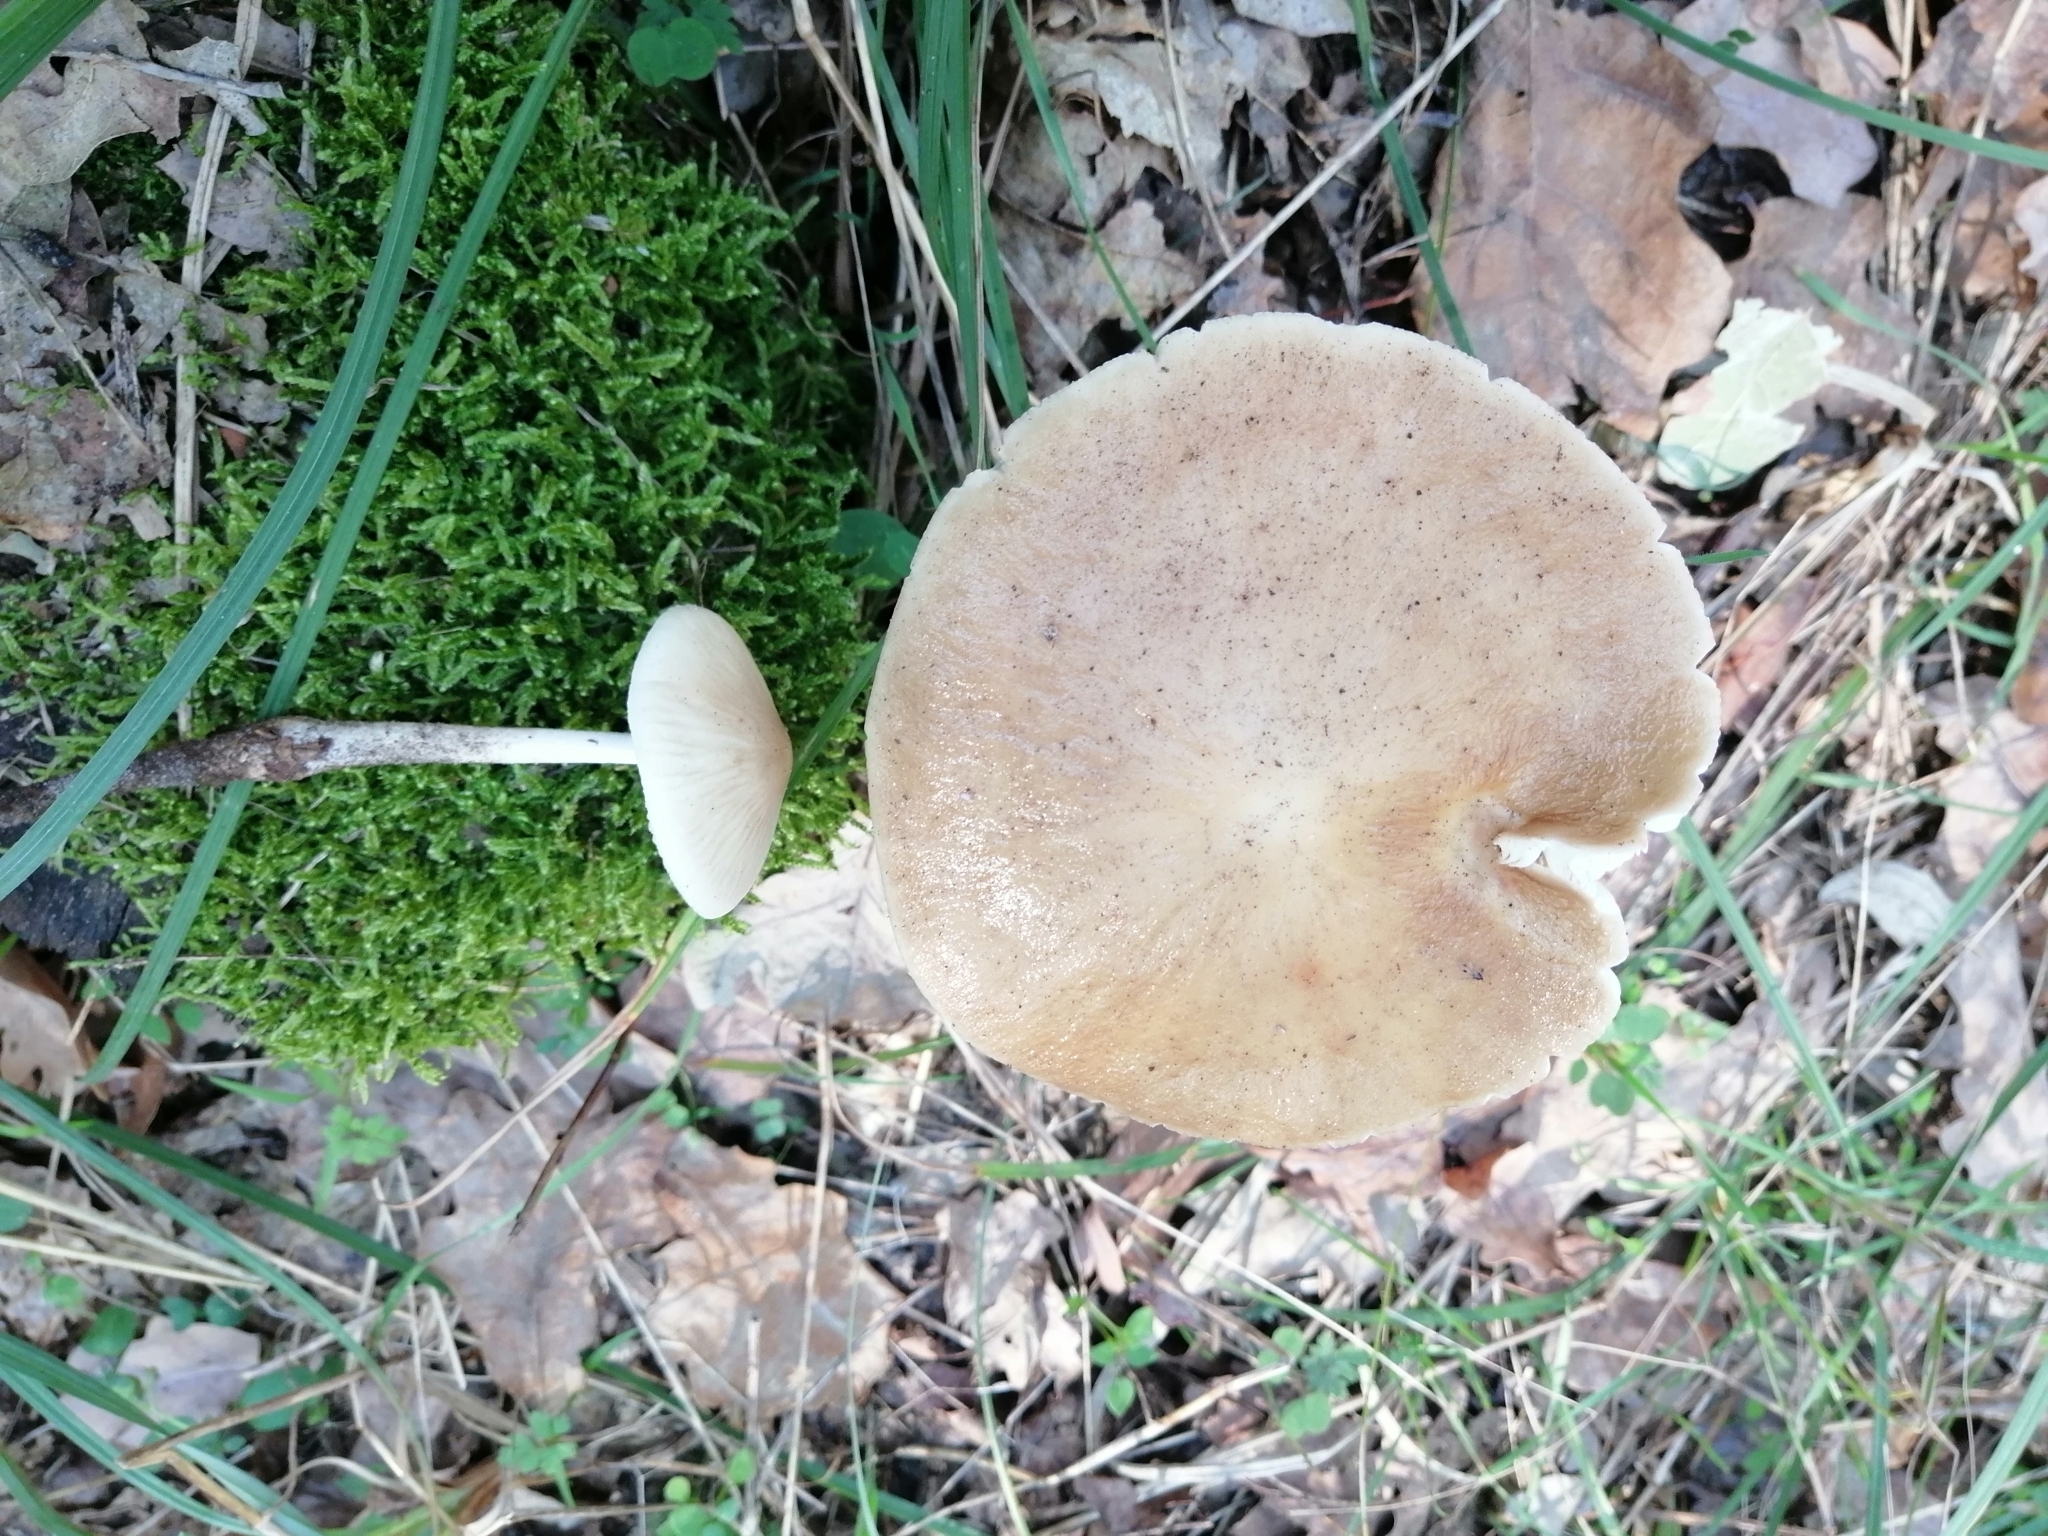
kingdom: Fungi
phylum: Basidiomycota
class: Agaricomycetes
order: Agaricales
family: Physalacriaceae
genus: Hymenopellis
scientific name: Hymenopellis radicata
